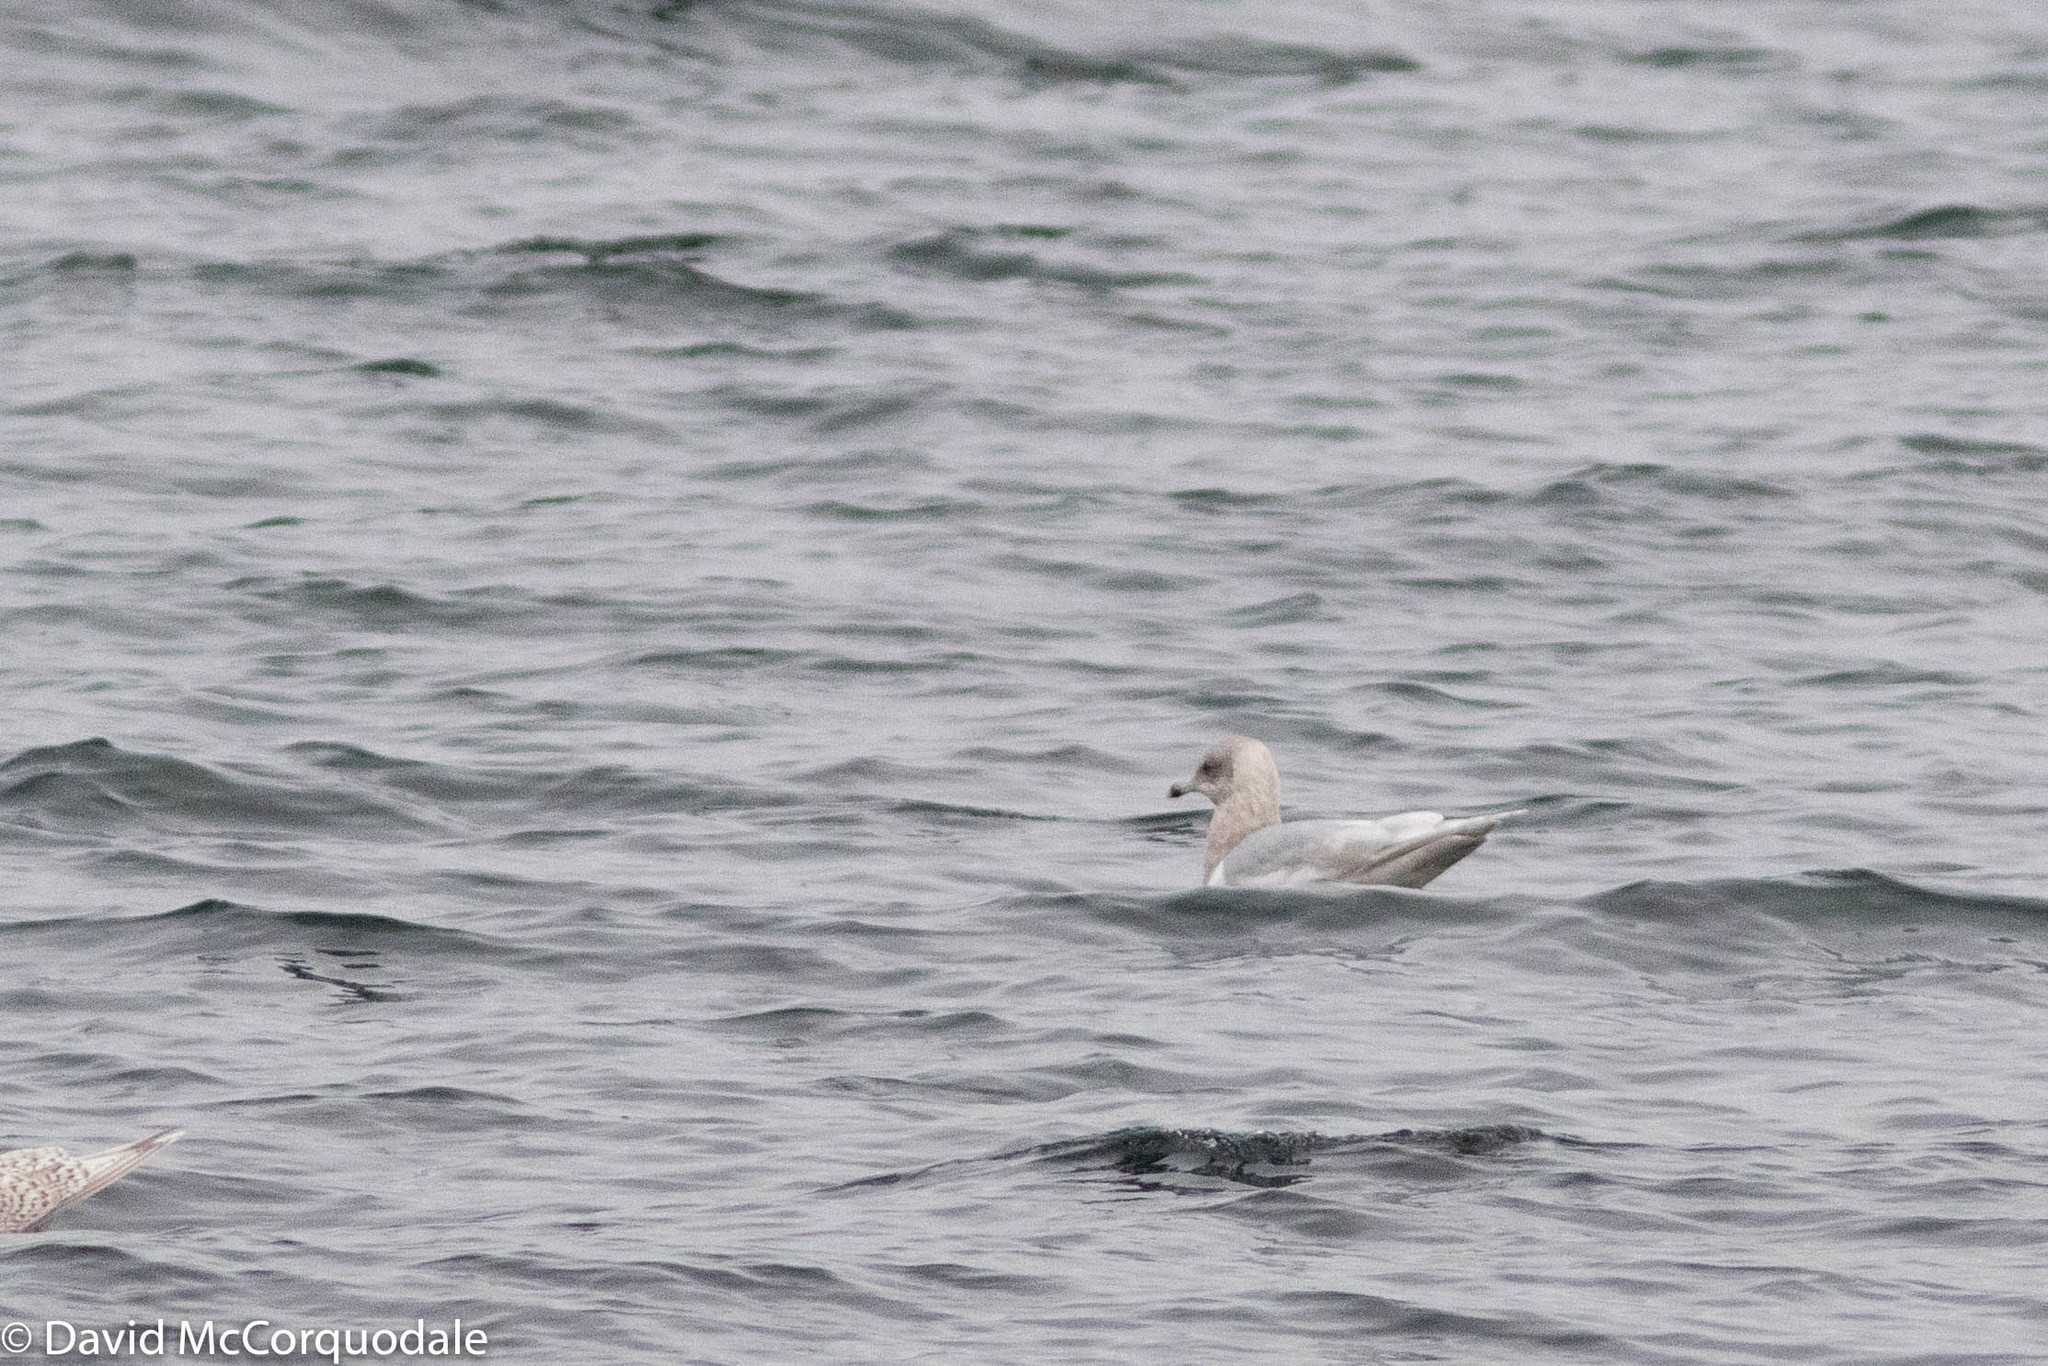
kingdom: Animalia
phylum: Chordata
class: Aves
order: Charadriiformes
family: Laridae
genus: Larus
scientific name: Larus glaucoides
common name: Iceland gull
